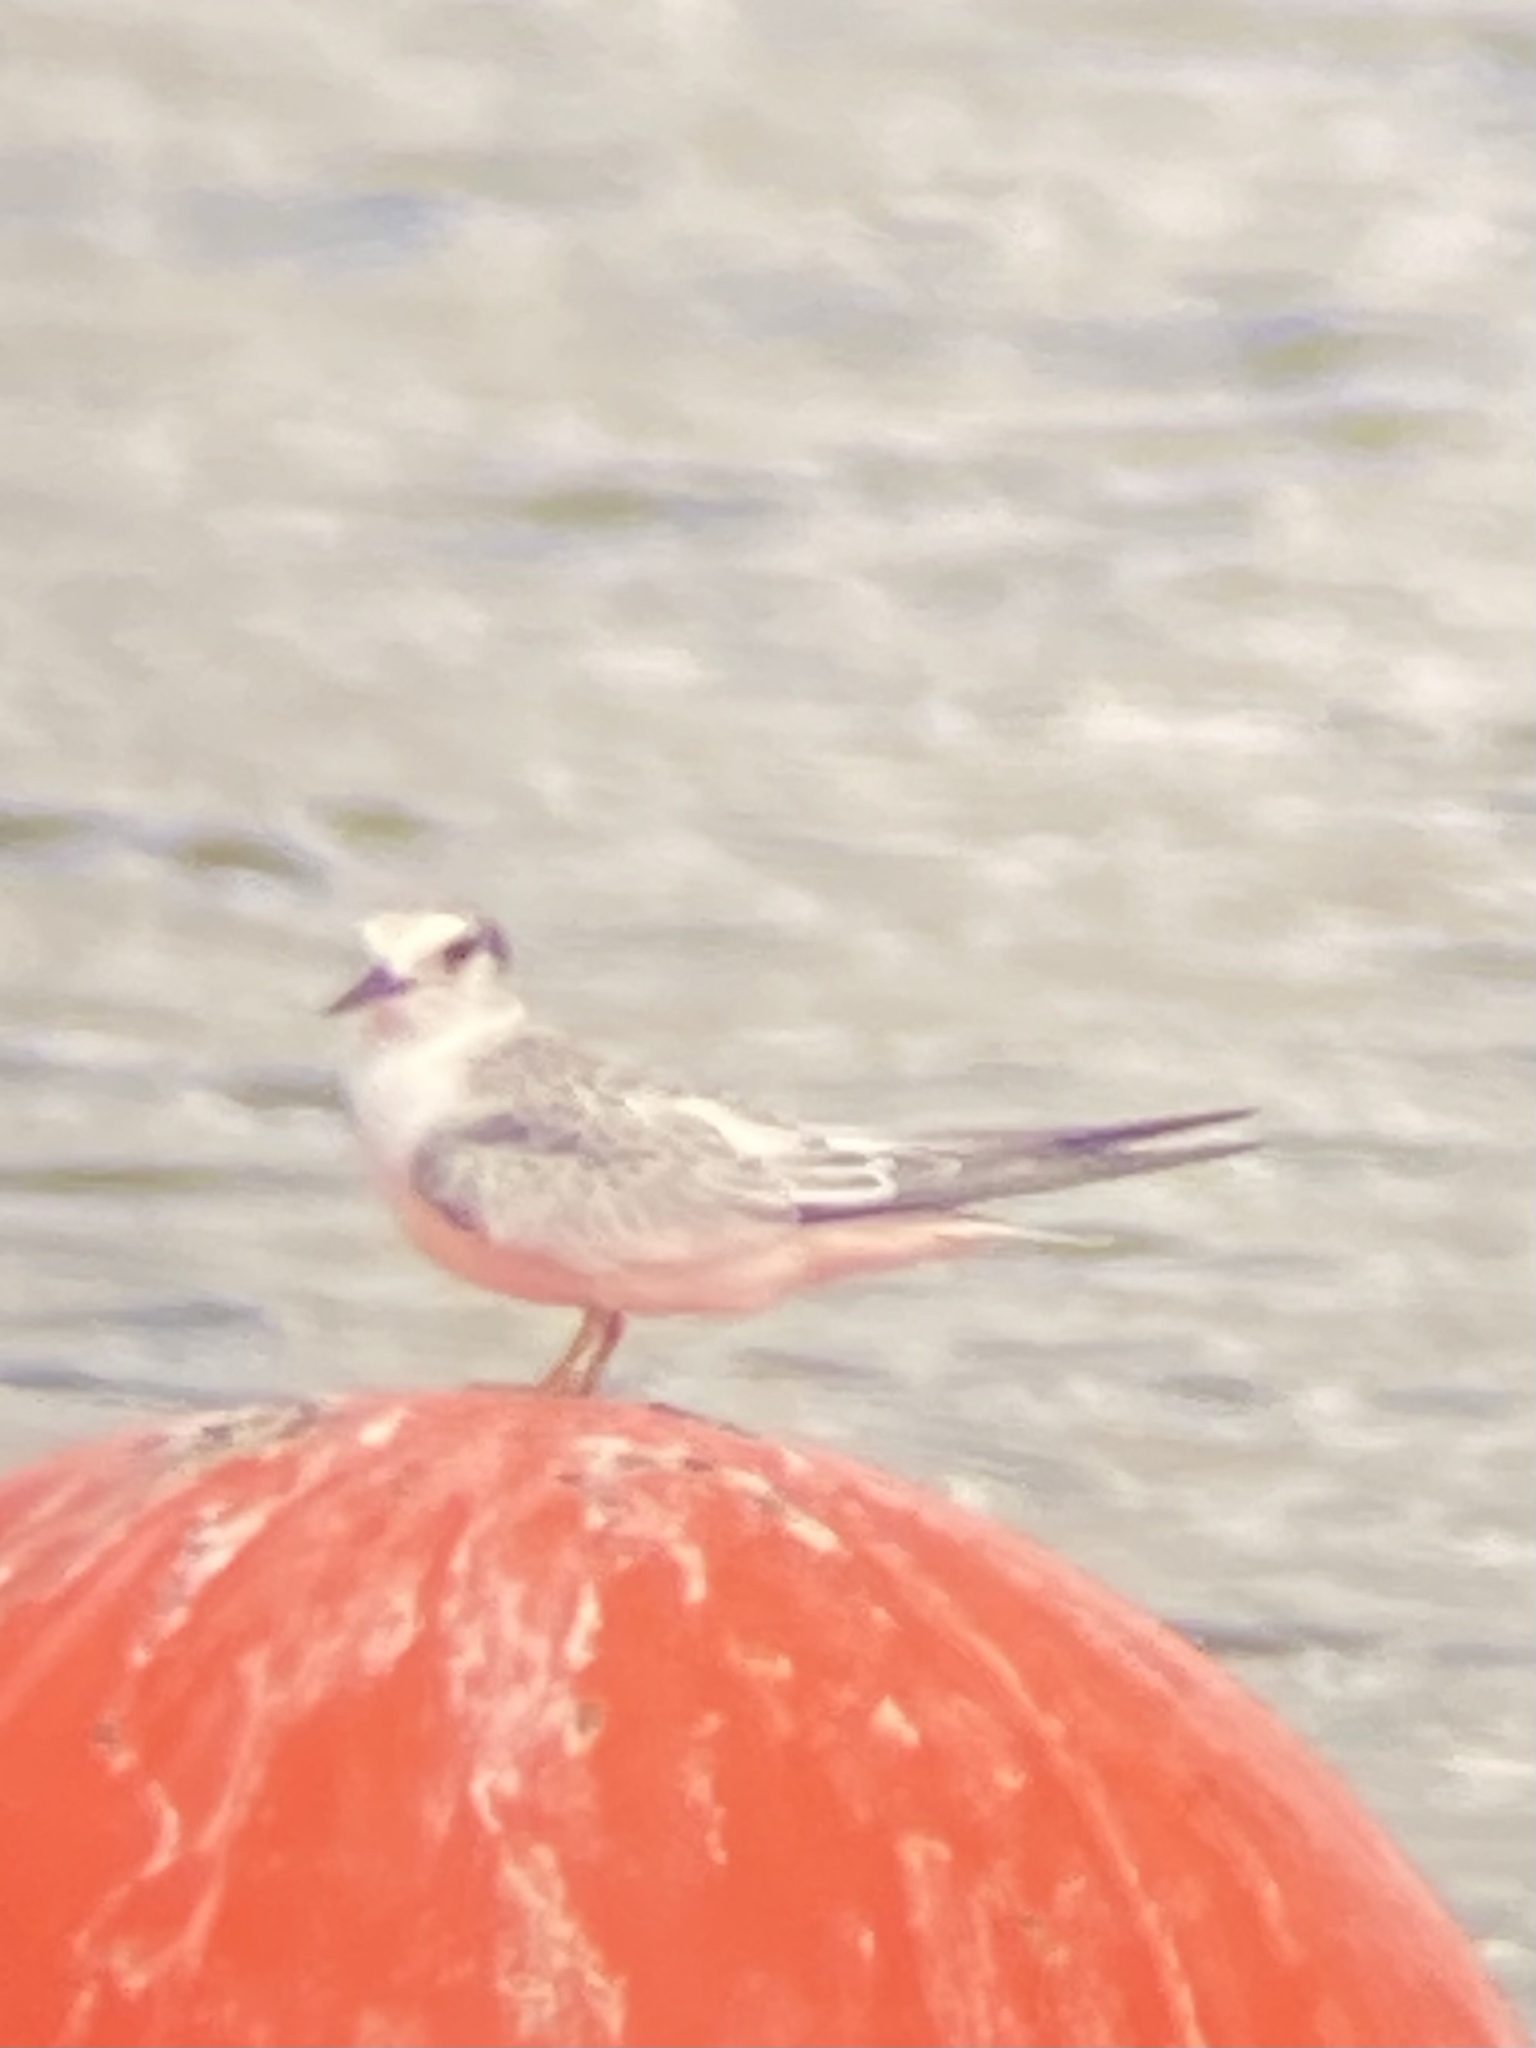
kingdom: Animalia
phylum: Chordata
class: Aves
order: Charadriiformes
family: Laridae
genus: Sternula
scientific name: Sternula antillarum
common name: Least tern
